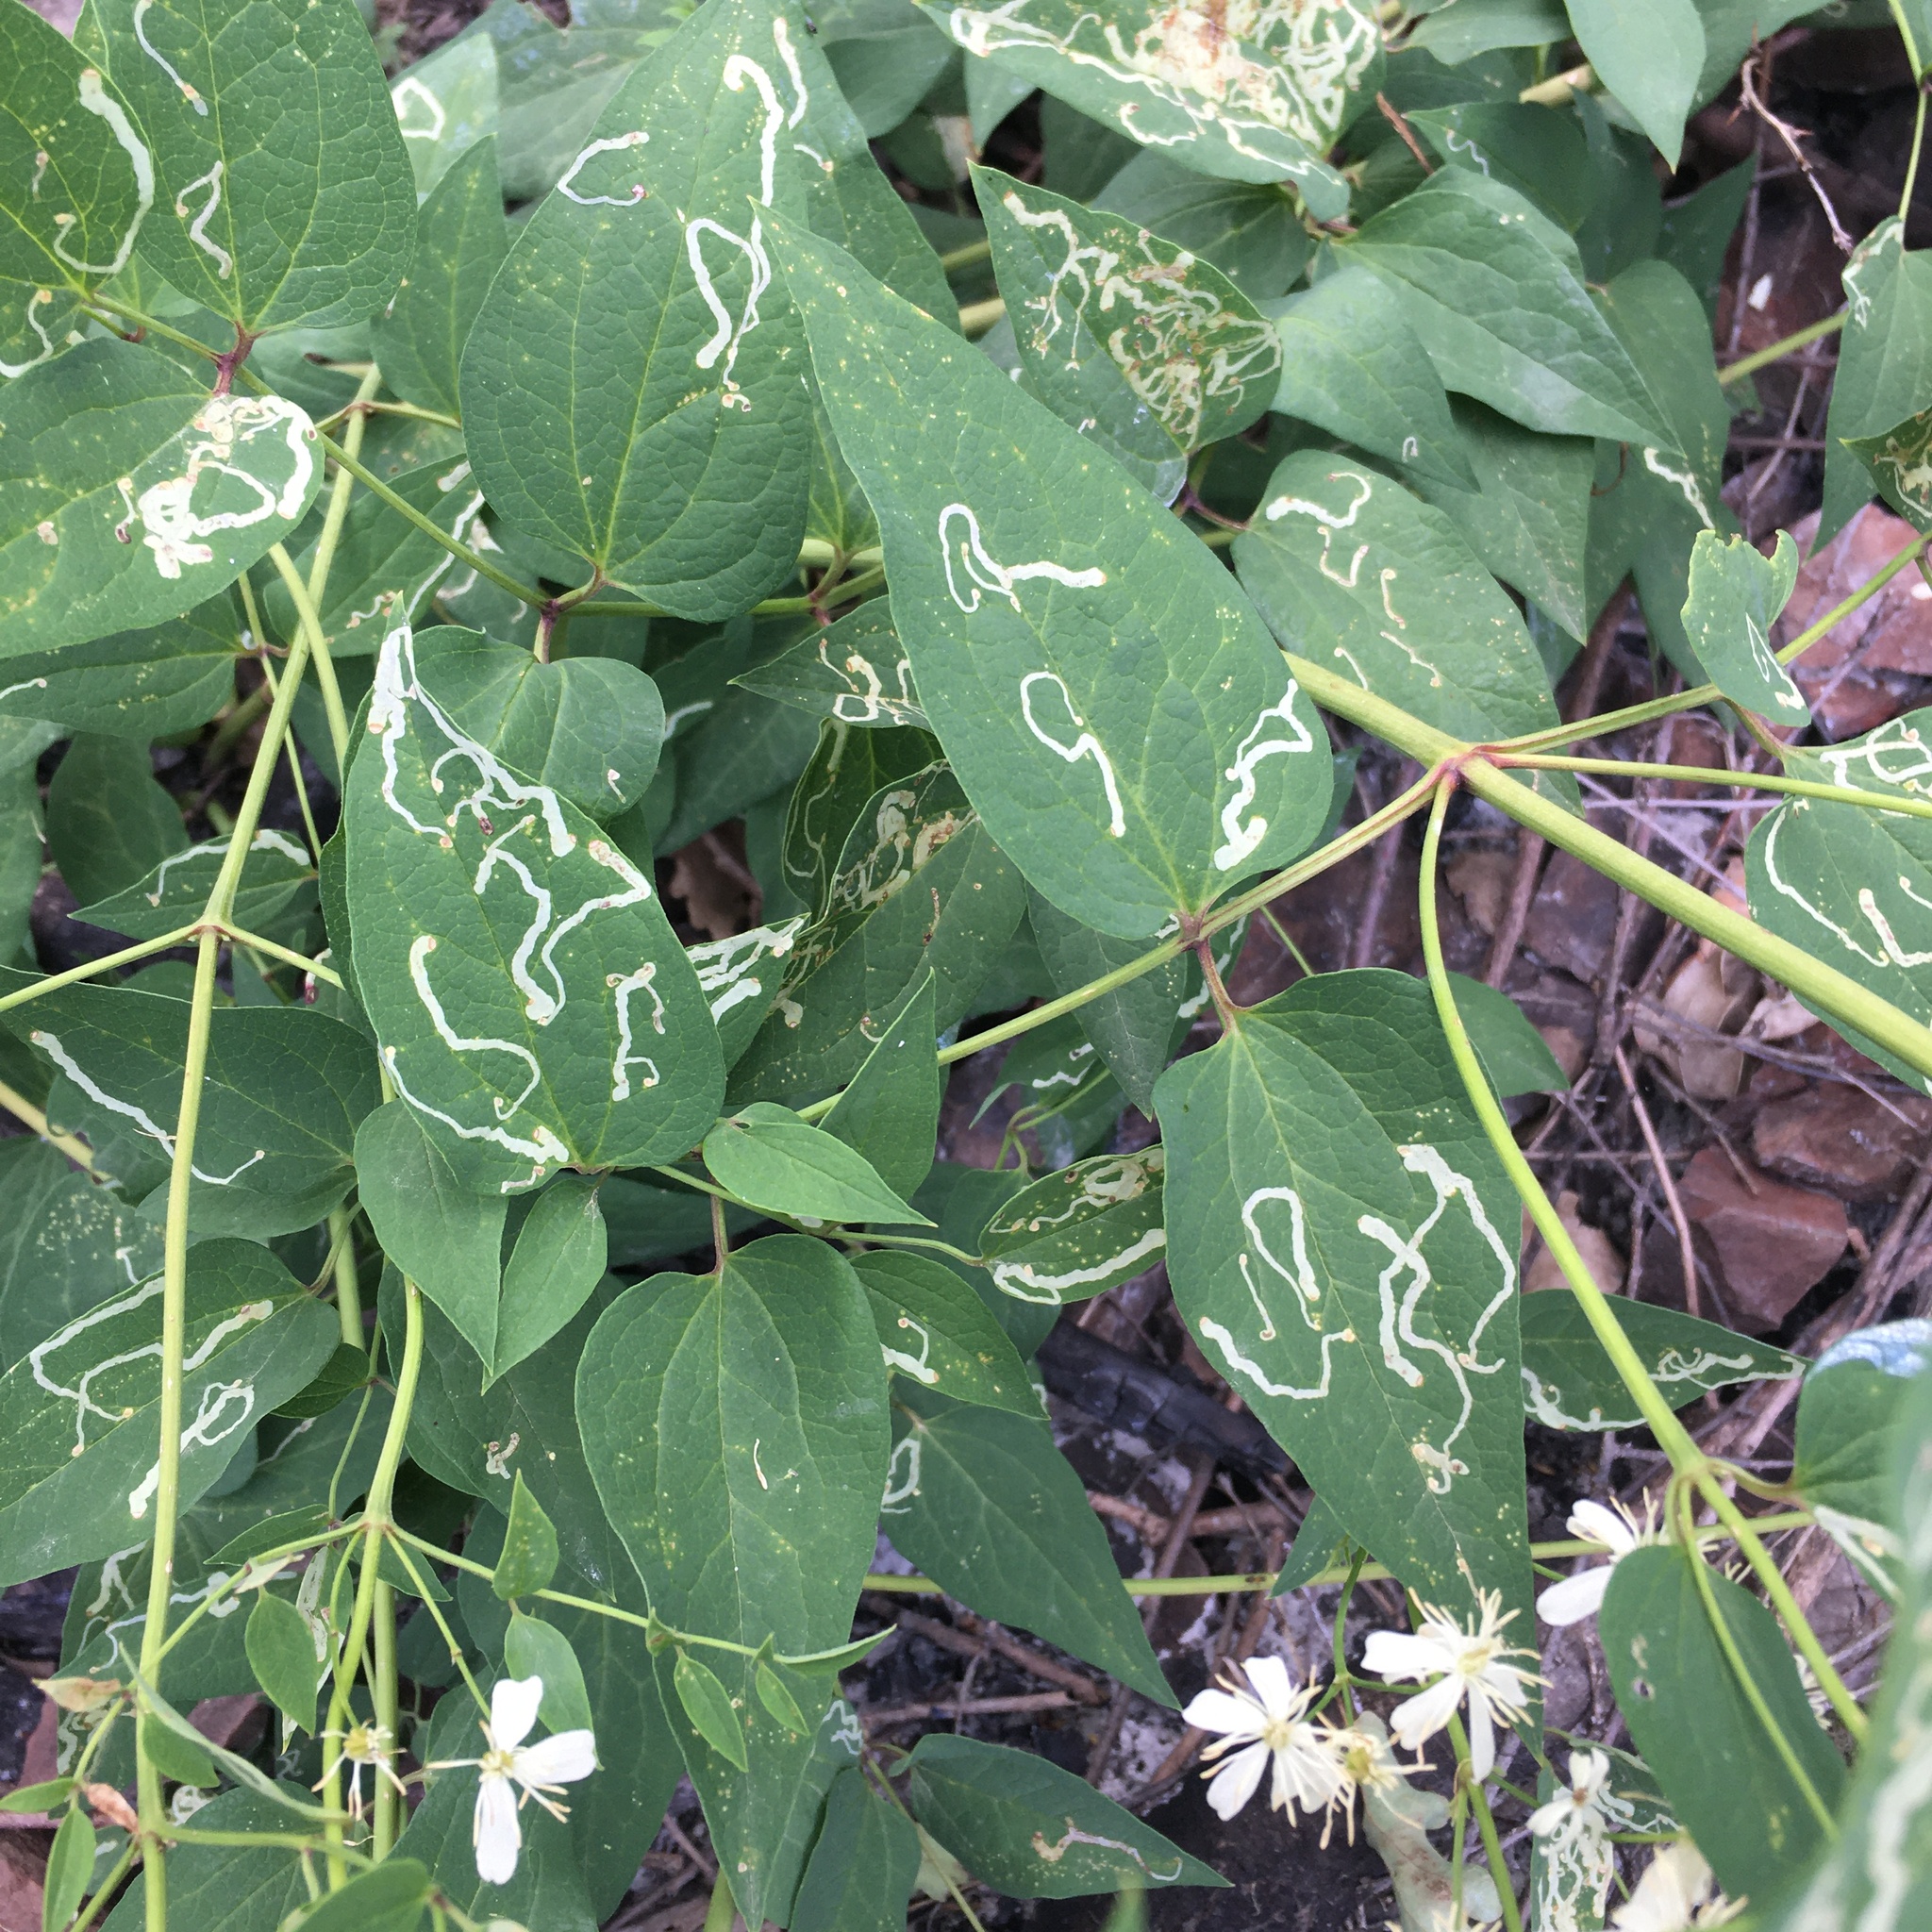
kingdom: Plantae
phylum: Tracheophyta
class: Magnoliopsida
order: Ranunculales
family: Ranunculaceae
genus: Clematis
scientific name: Clematis recta
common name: Ground clematis
